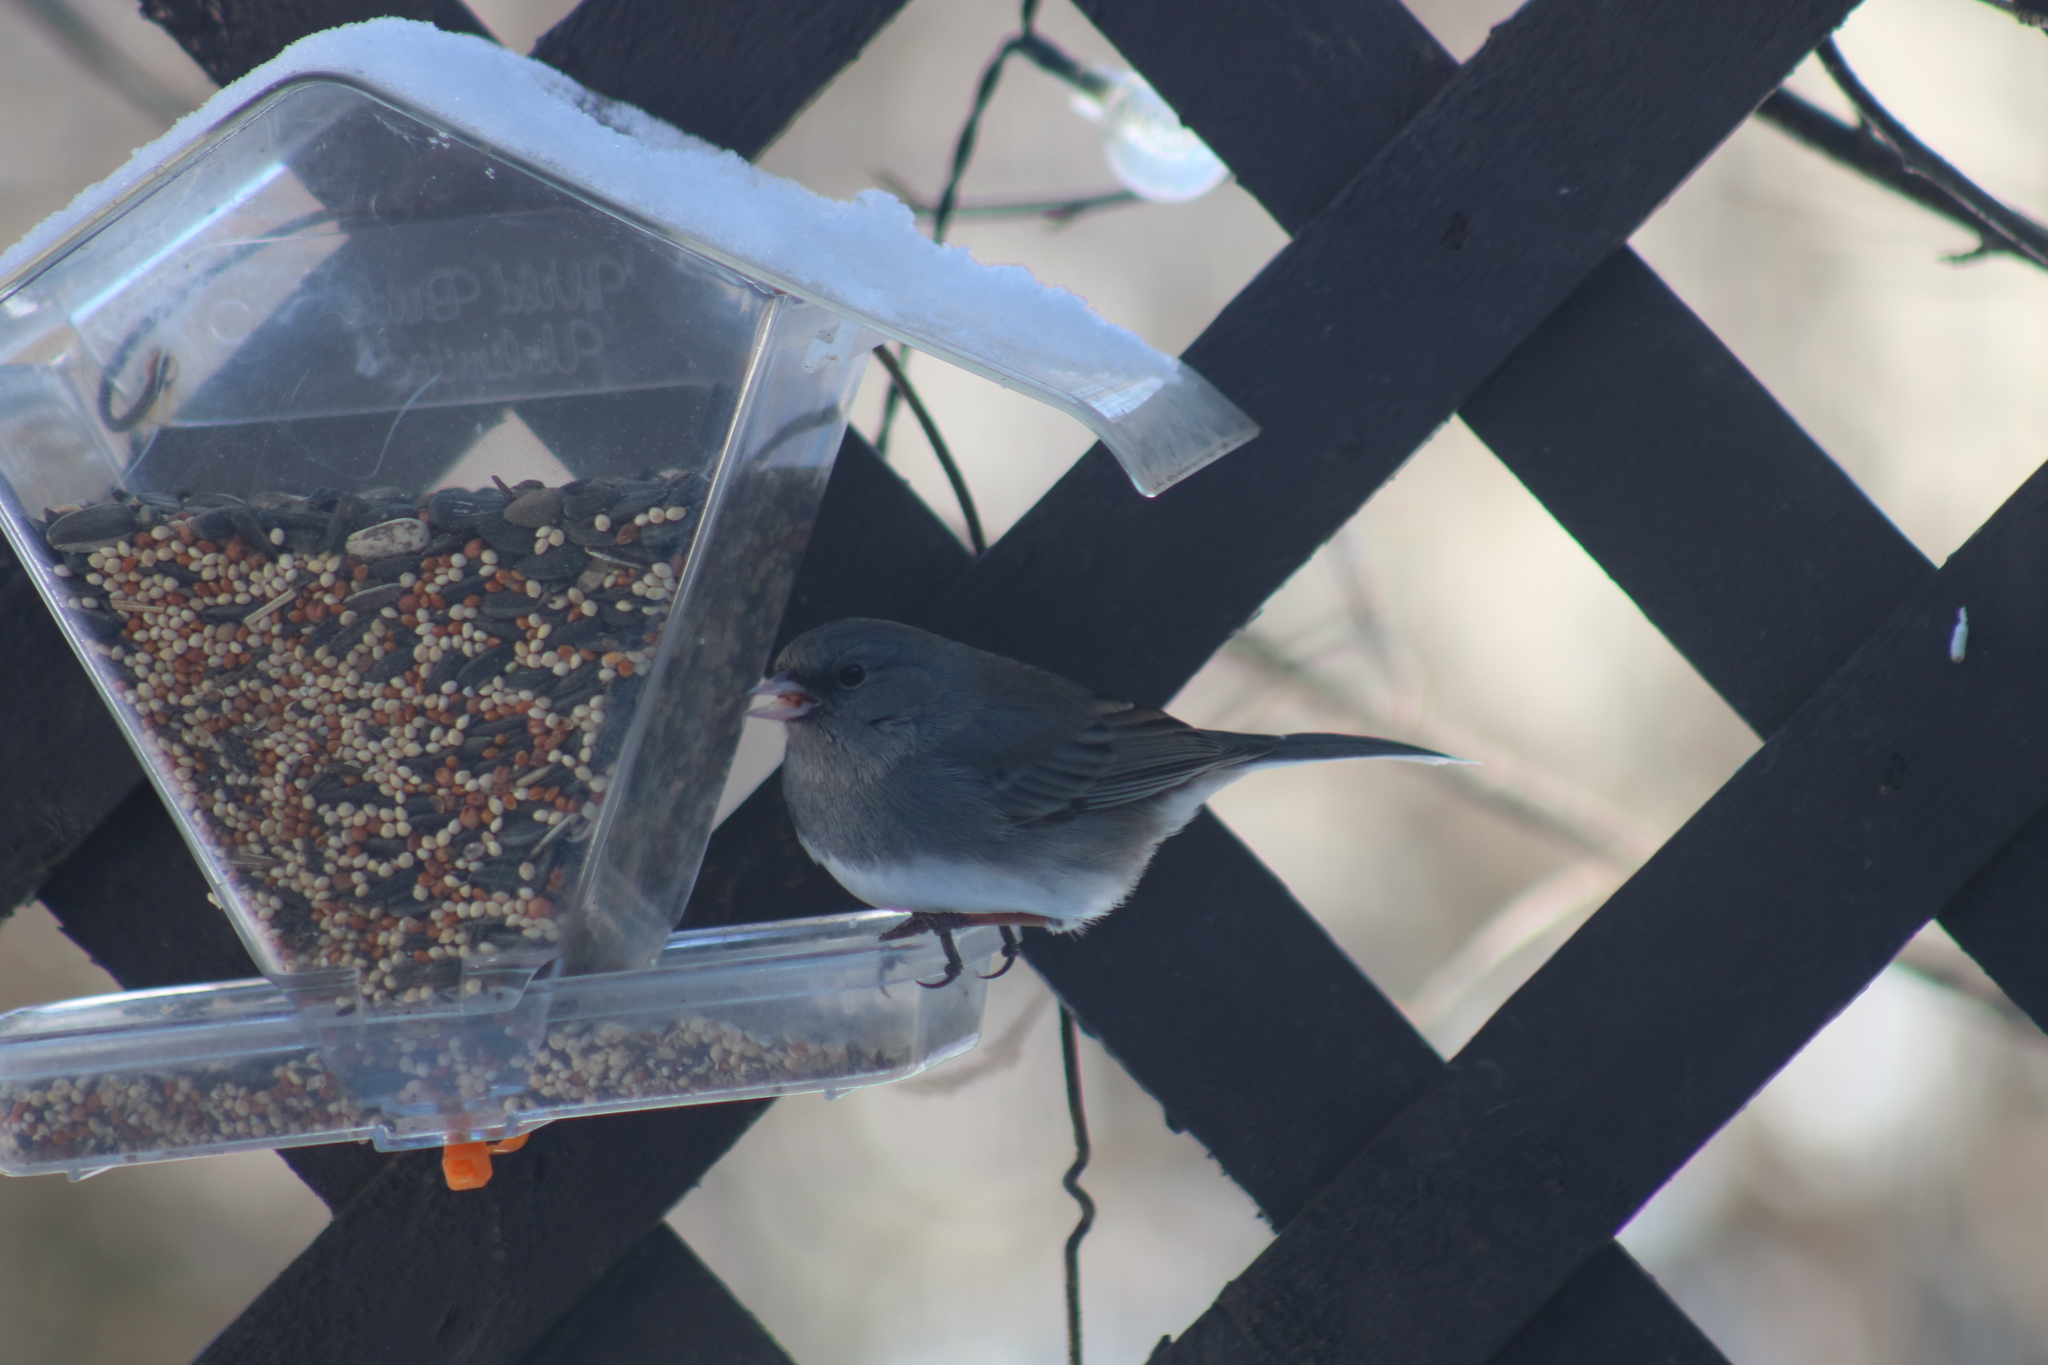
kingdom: Animalia
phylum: Chordata
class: Aves
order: Passeriformes
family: Passerellidae
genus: Junco
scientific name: Junco hyemalis
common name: Dark-eyed junco
